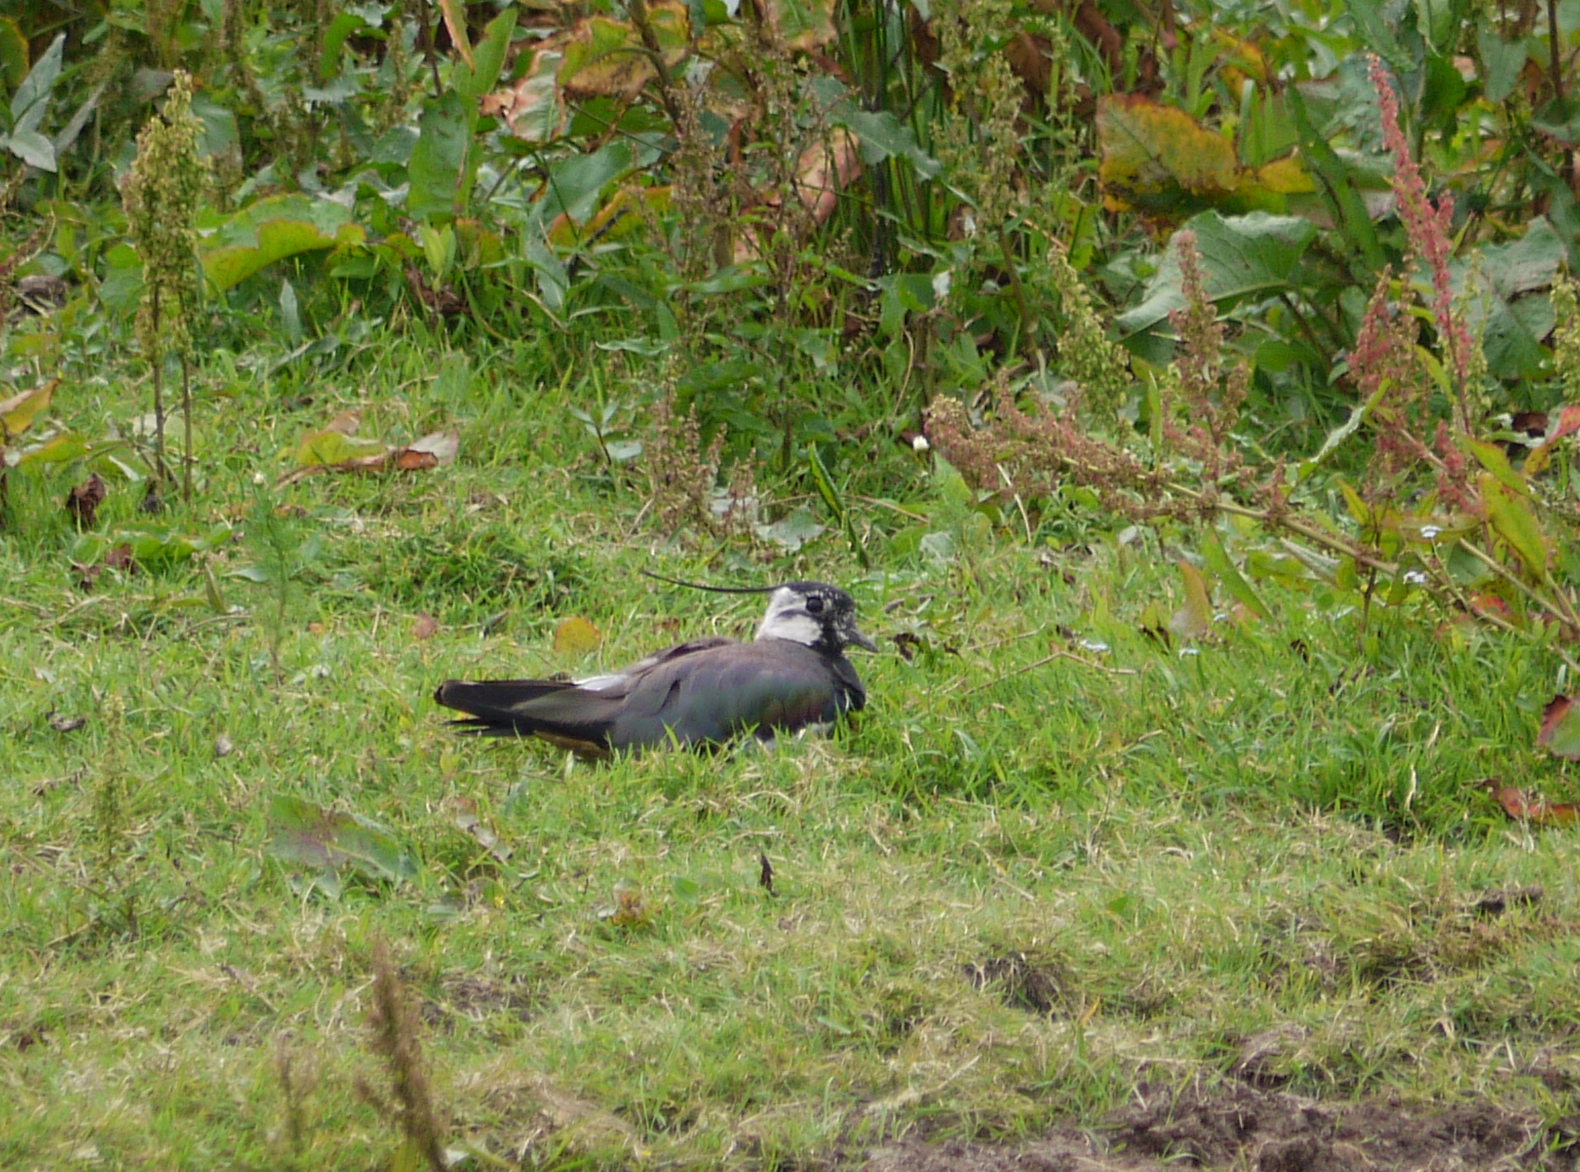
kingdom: Animalia
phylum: Chordata
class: Aves
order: Charadriiformes
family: Charadriidae
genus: Vanellus
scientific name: Vanellus vanellus
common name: Northern lapwing
